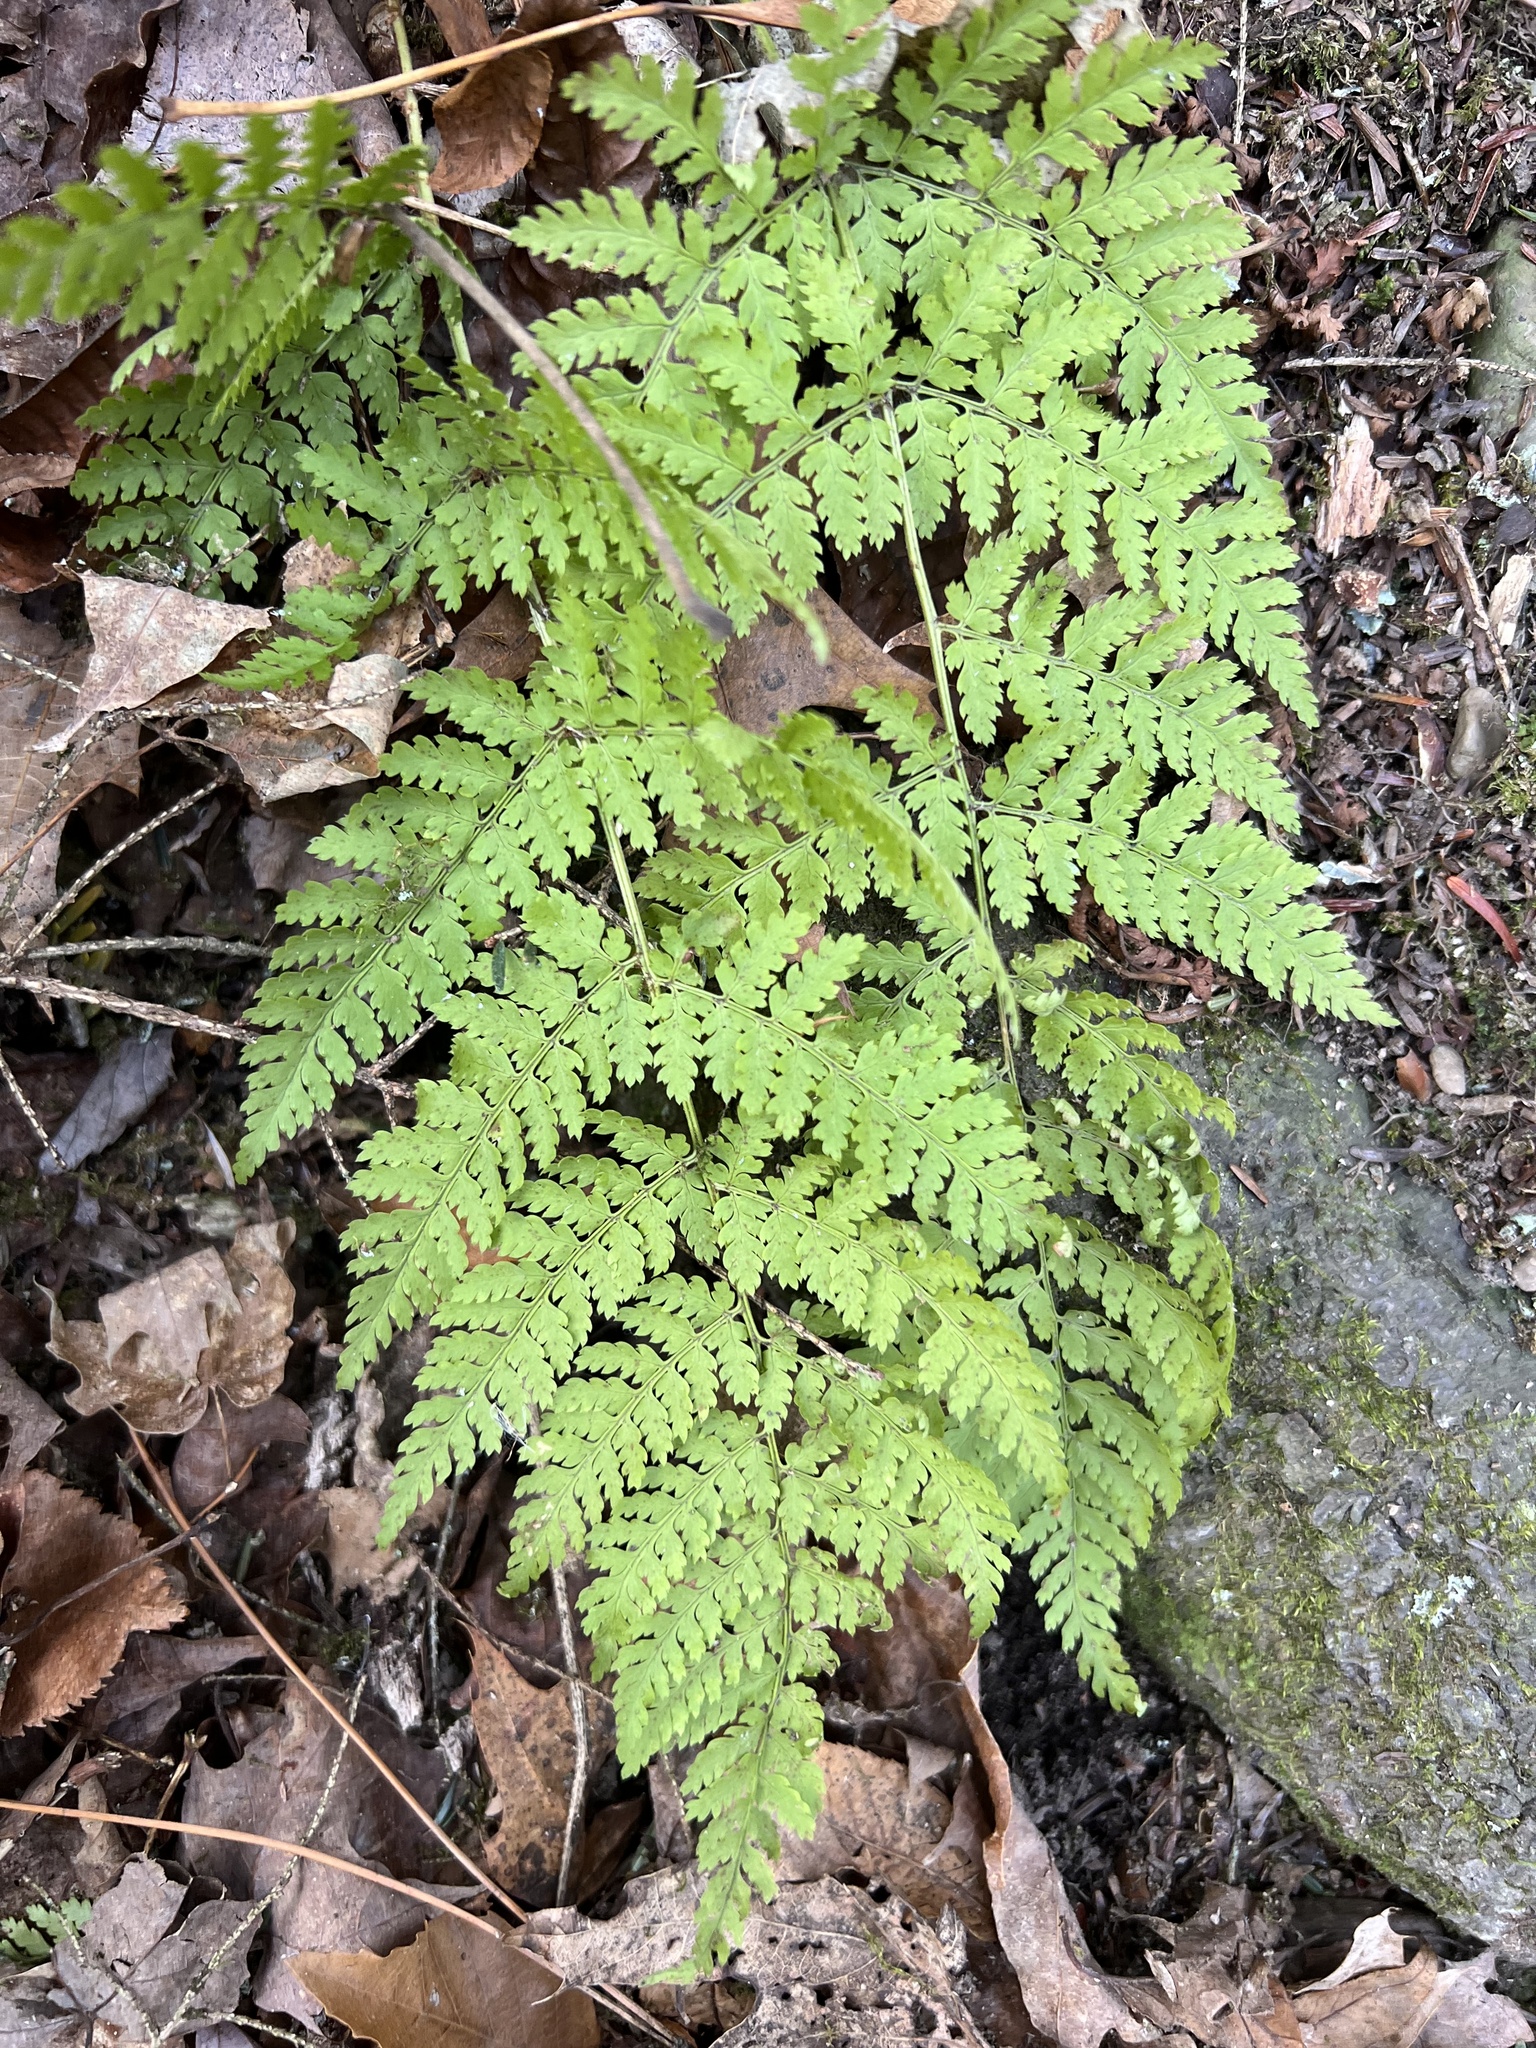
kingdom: Plantae
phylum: Tracheophyta
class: Polypodiopsida
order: Polypodiales
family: Dryopteridaceae
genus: Dryopteris
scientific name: Dryopteris intermedia
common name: Evergreen wood fern
